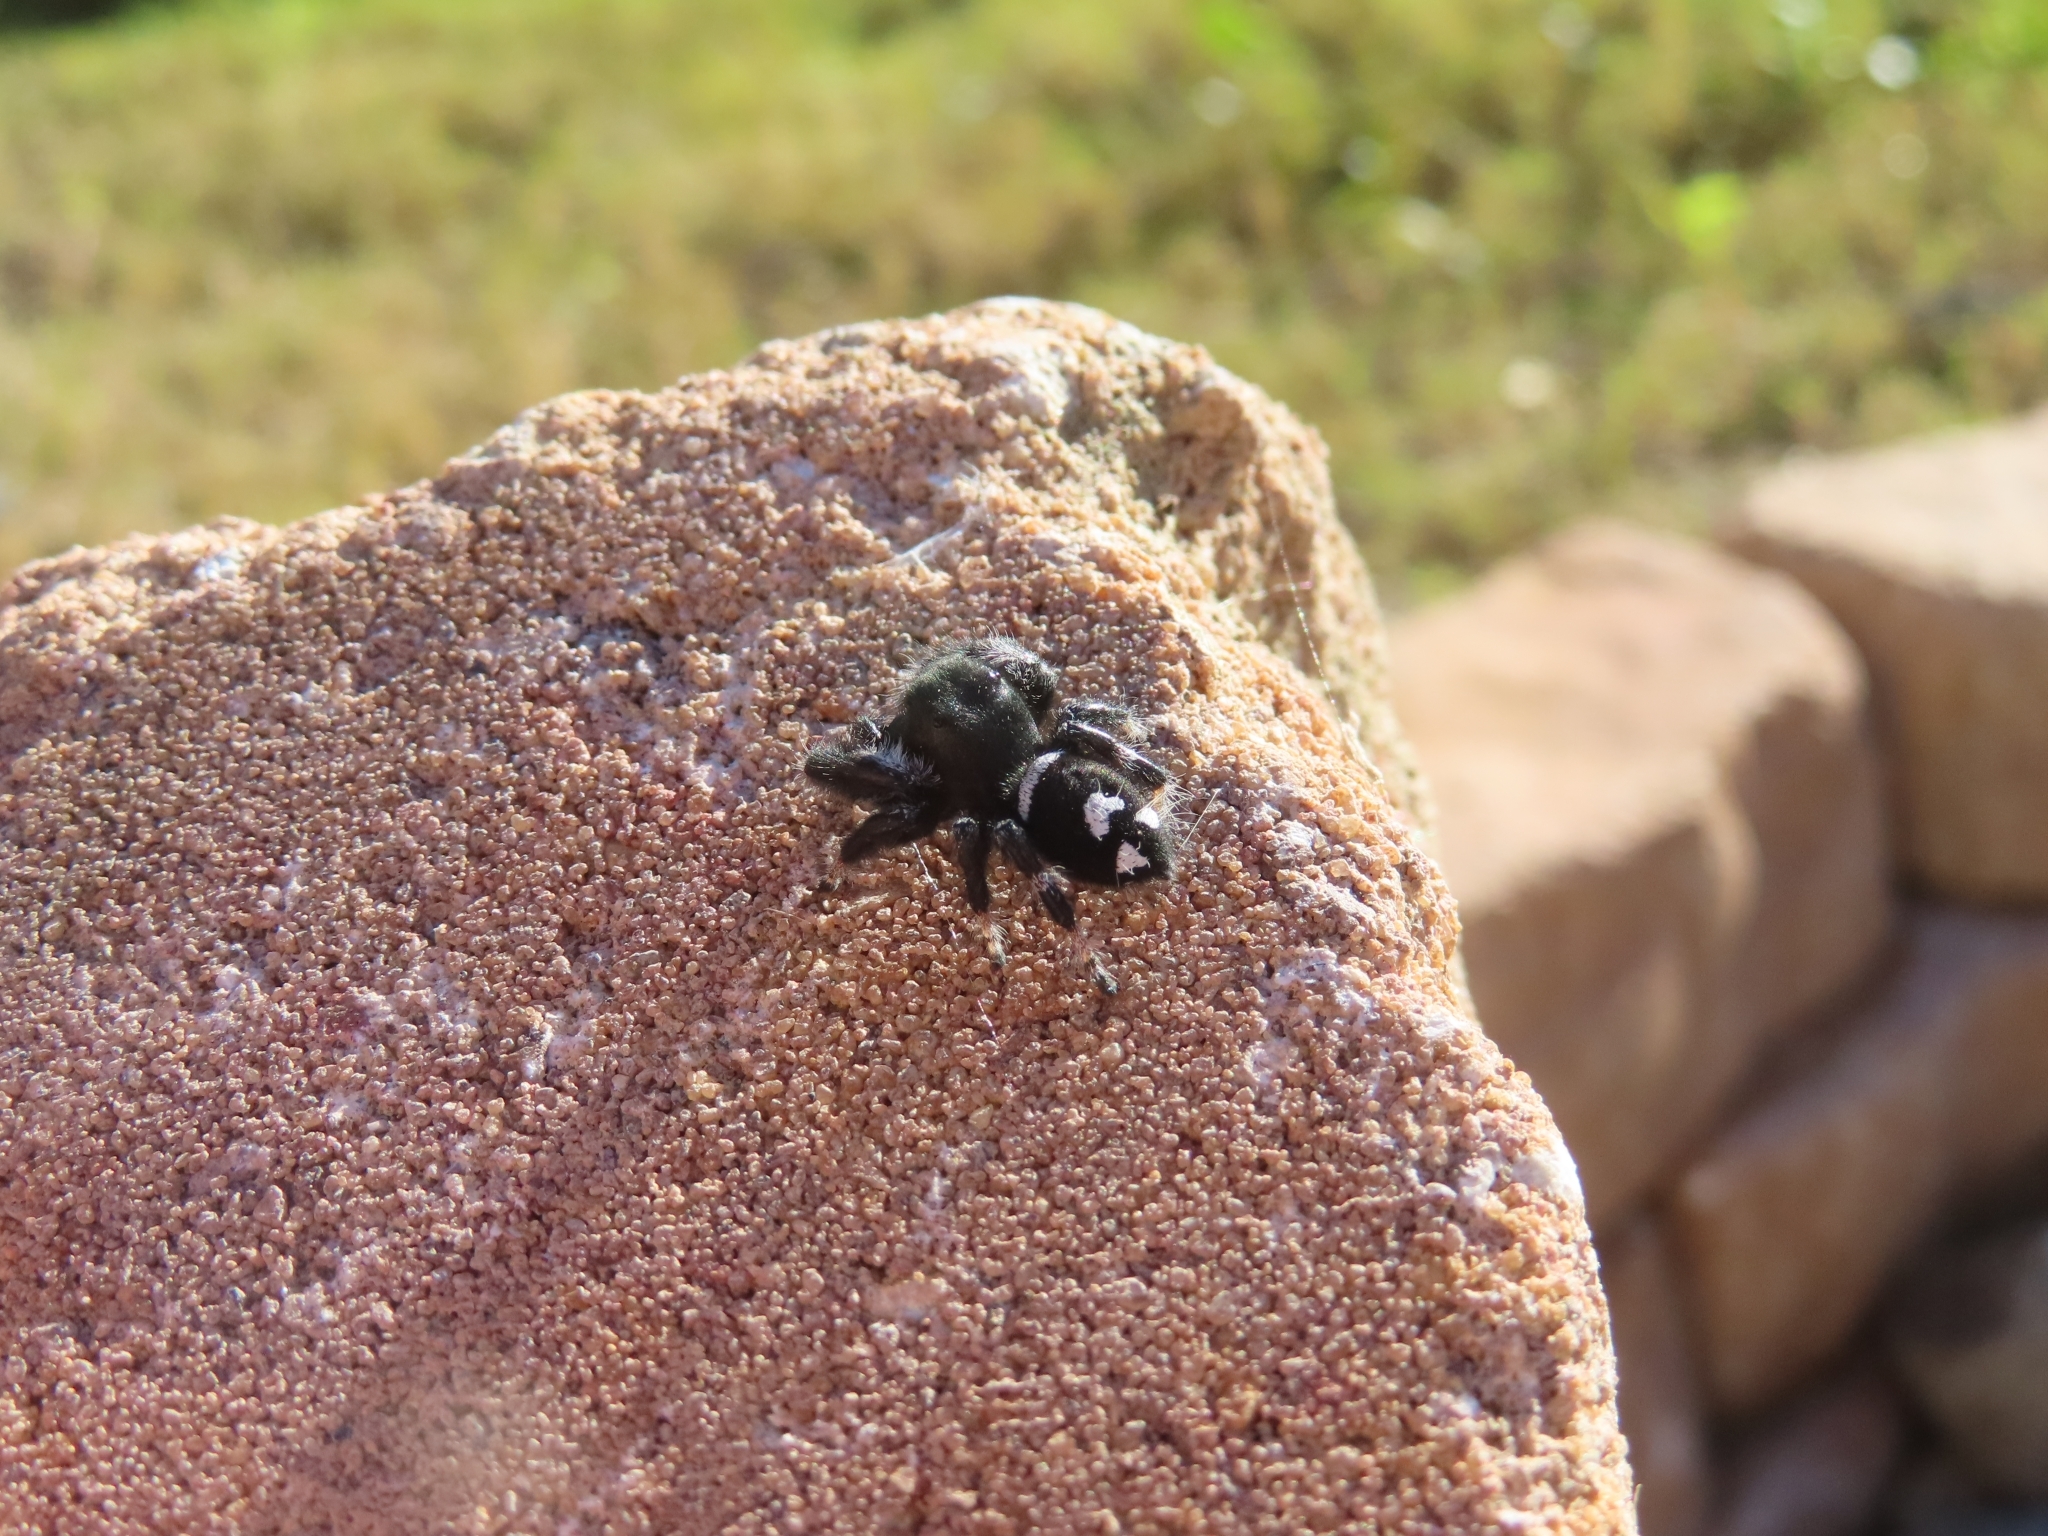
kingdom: Animalia
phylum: Arthropoda
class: Arachnida
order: Araneae
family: Salticidae
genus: Phidippus
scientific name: Phidippus regius
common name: Regal jumper
